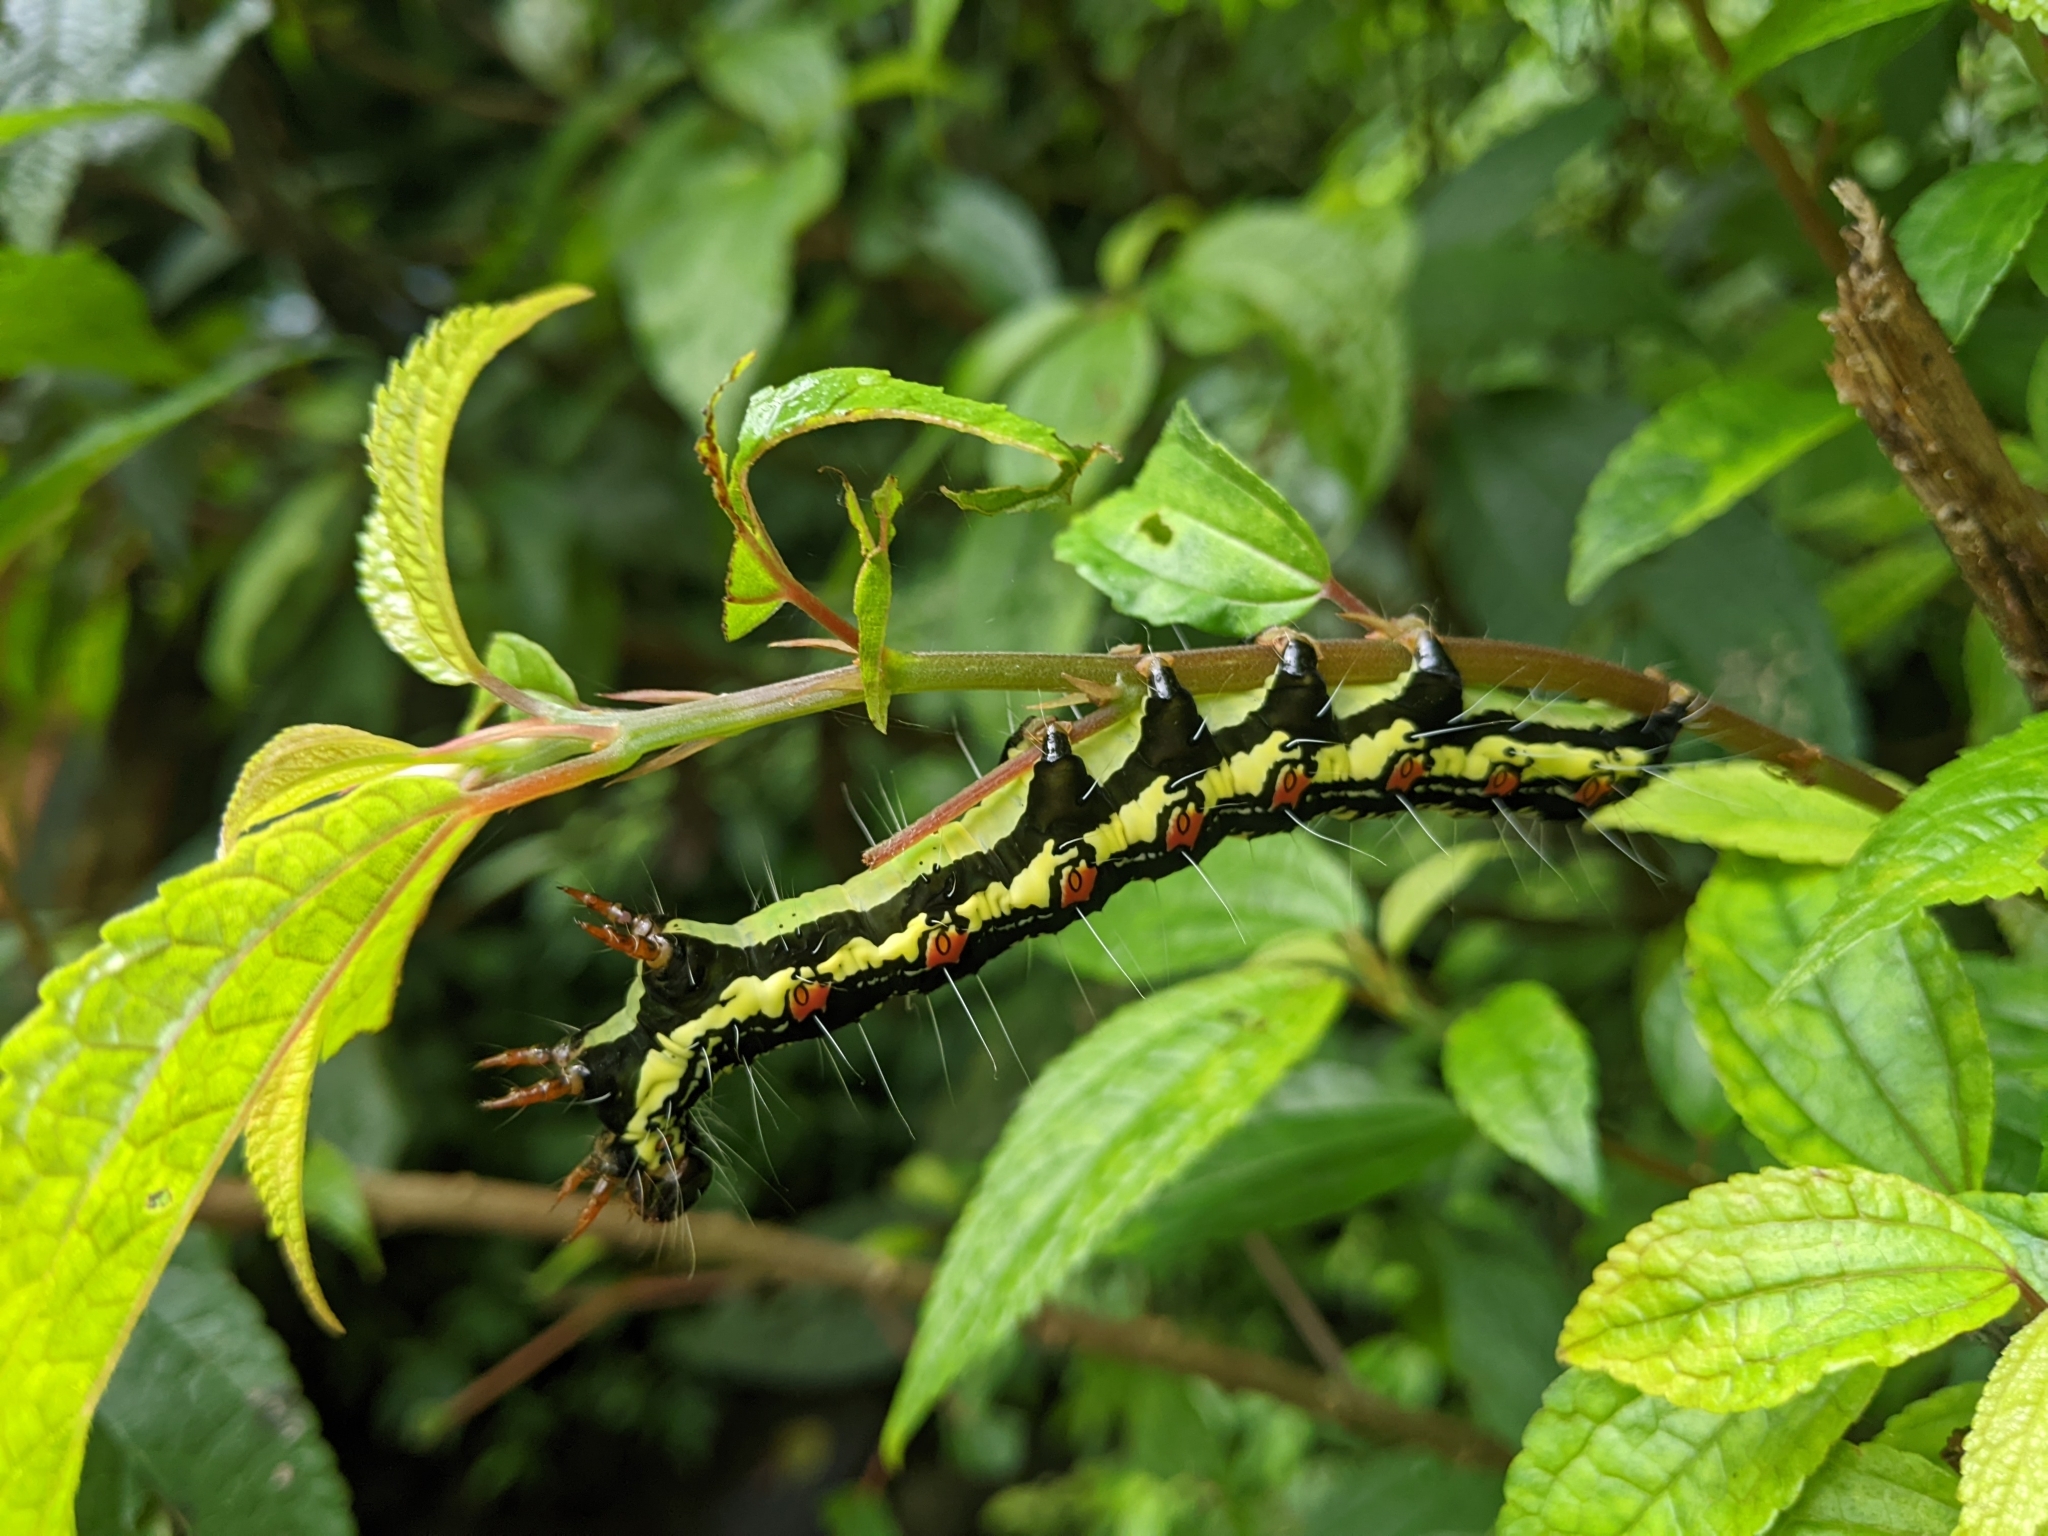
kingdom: Animalia
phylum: Arthropoda
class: Insecta
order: Lepidoptera
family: Erebidae
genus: Arcte
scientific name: Arcte coerula
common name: Ramie moth
